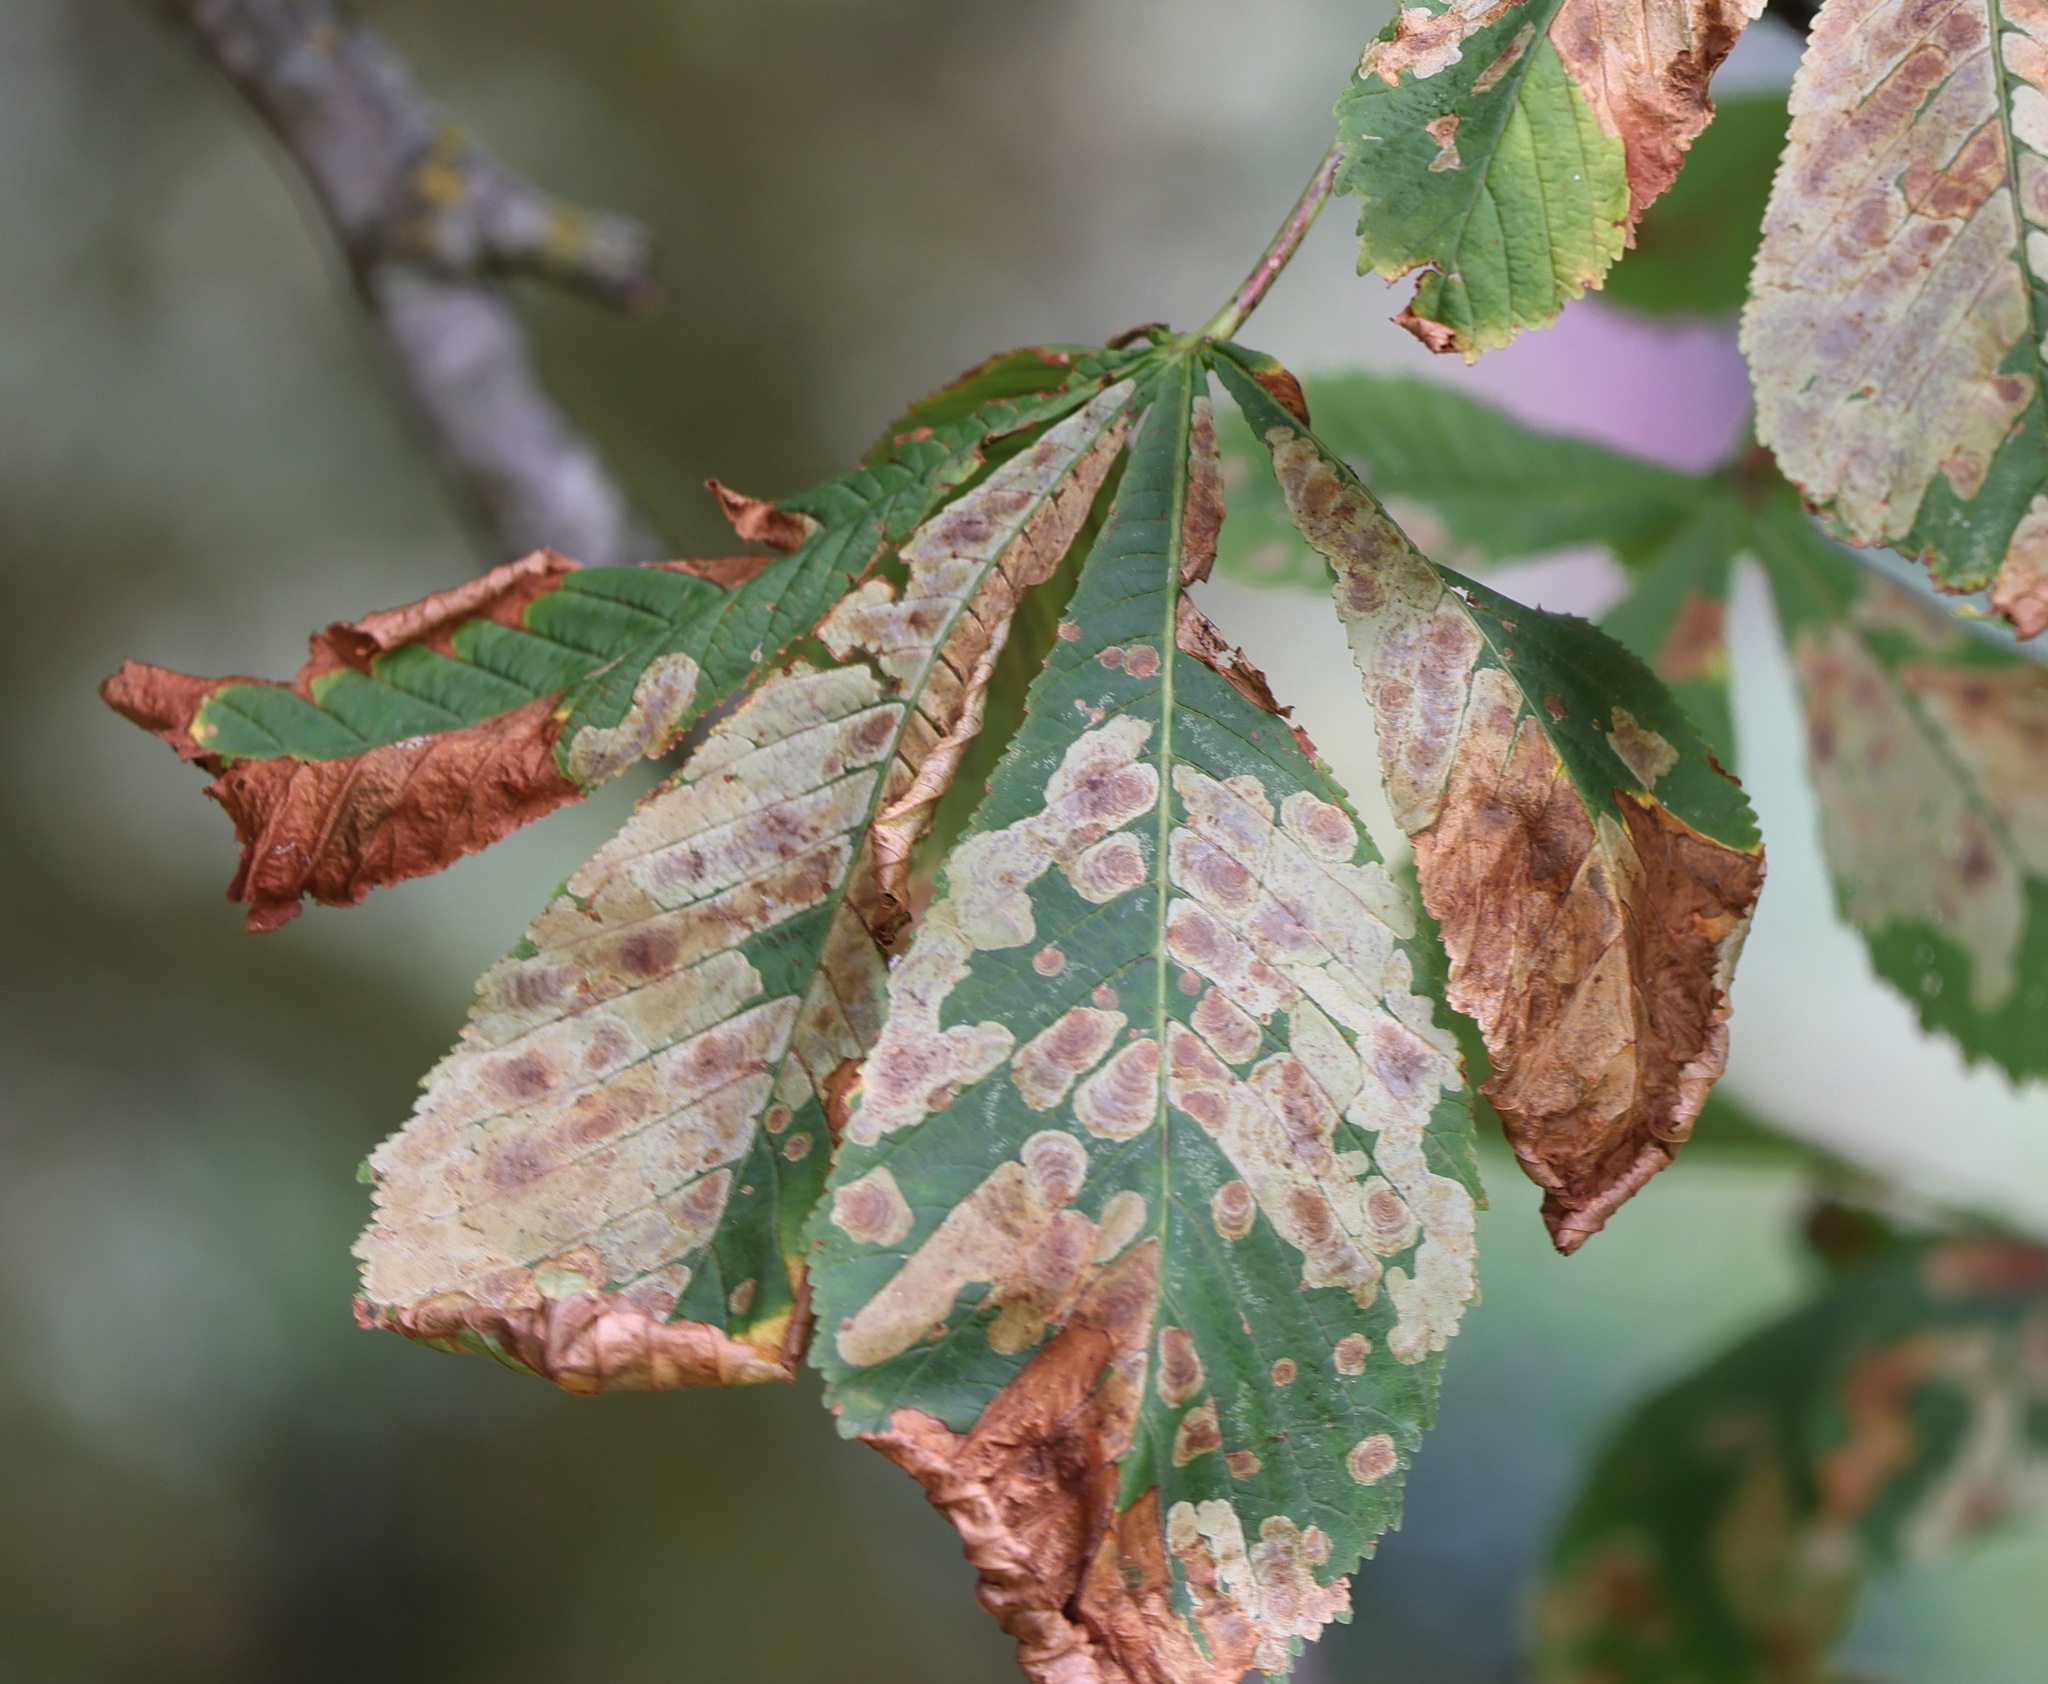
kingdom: Animalia
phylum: Arthropoda
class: Insecta
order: Lepidoptera
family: Gracillariidae
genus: Cameraria
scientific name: Cameraria ohridella
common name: Horse-chestnut leaf-miner
